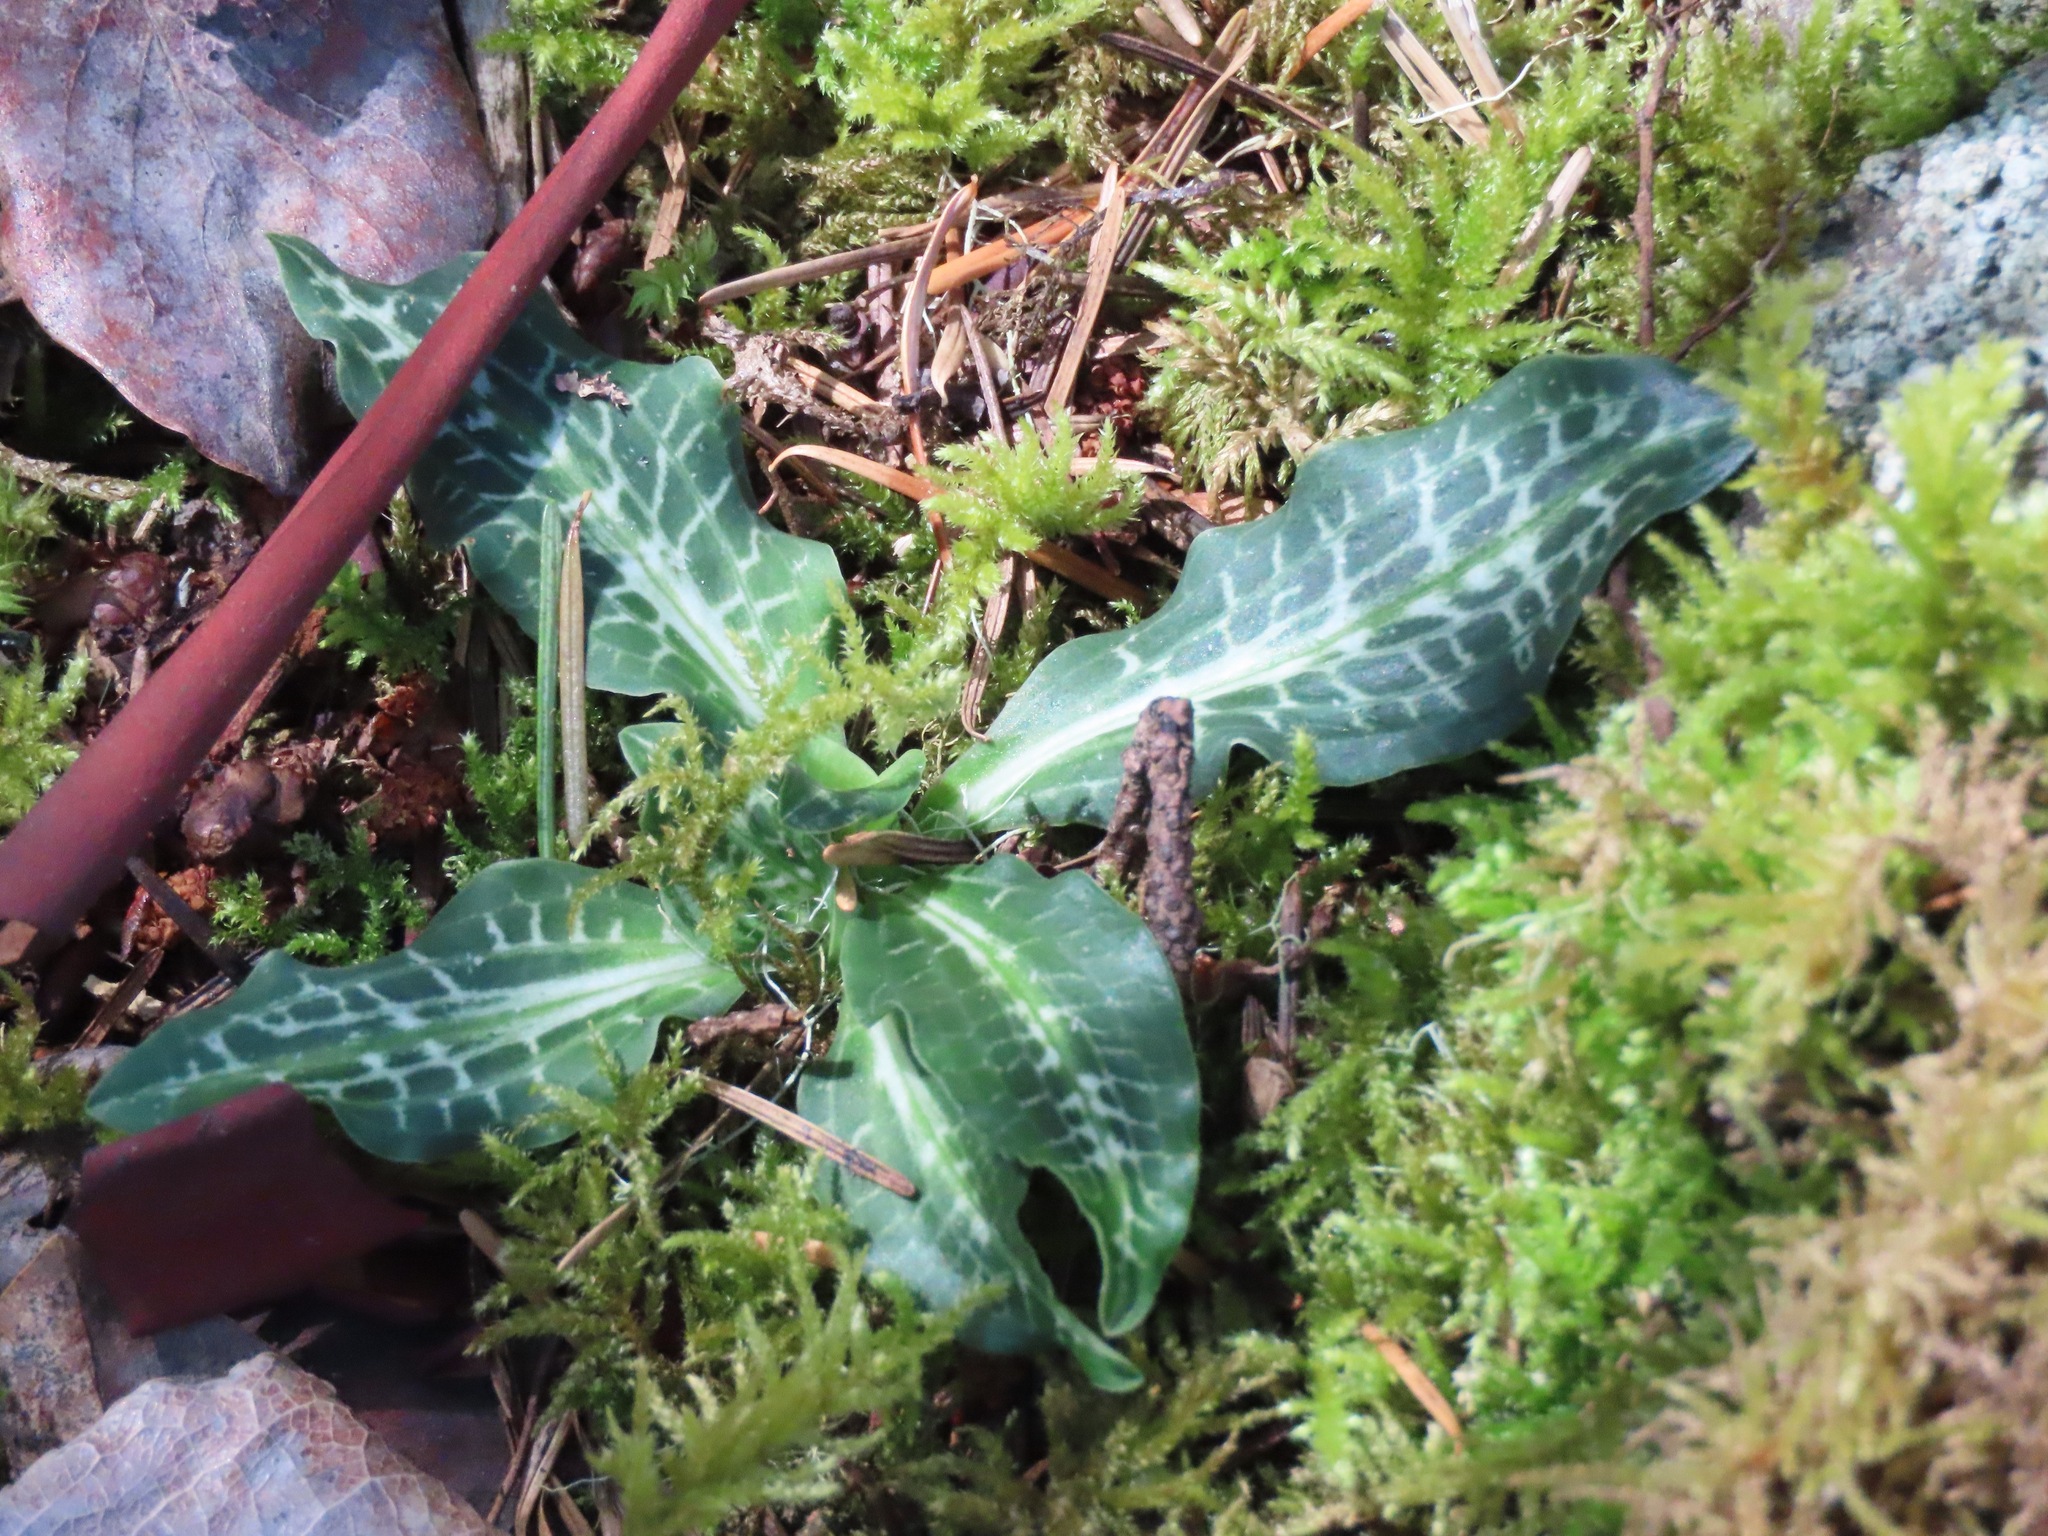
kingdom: Plantae
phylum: Tracheophyta
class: Liliopsida
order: Asparagales
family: Orchidaceae
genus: Goodyera
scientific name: Goodyera oblongifolia
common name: Giant rattlesnake-plantain
